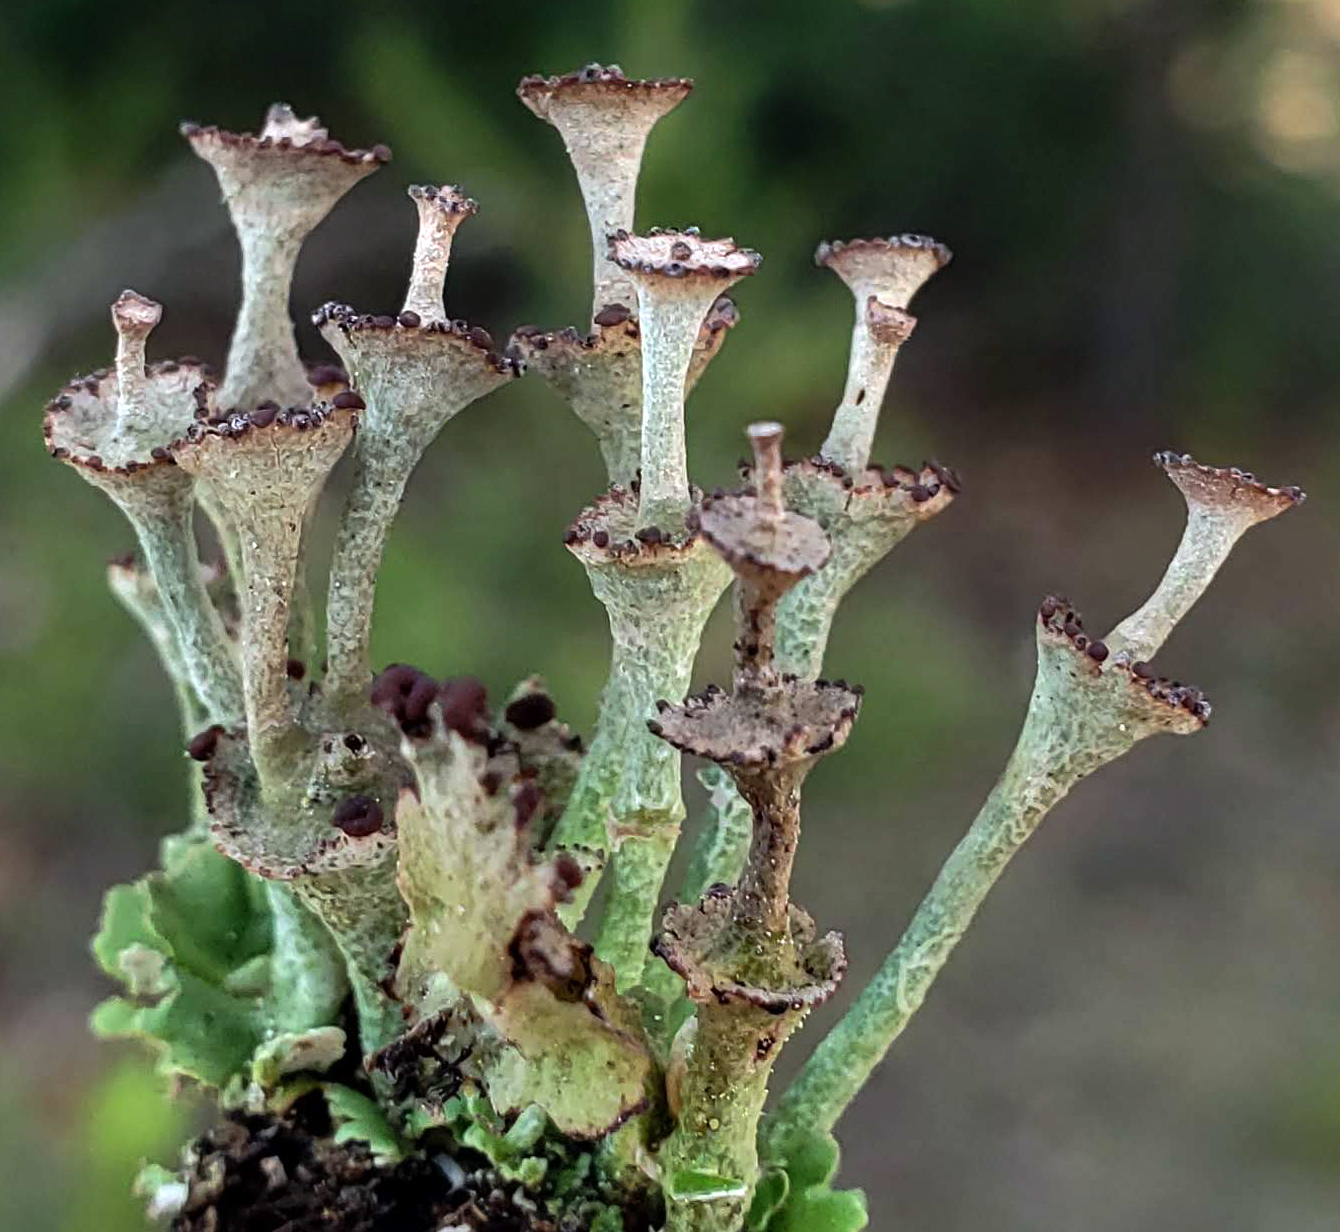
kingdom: Fungi
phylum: Ascomycota
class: Lecanoromycetes
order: Lecanorales
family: Cladoniaceae
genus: Cladonia
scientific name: Cladonia cervicornis
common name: Browned pixie-cup lichen
